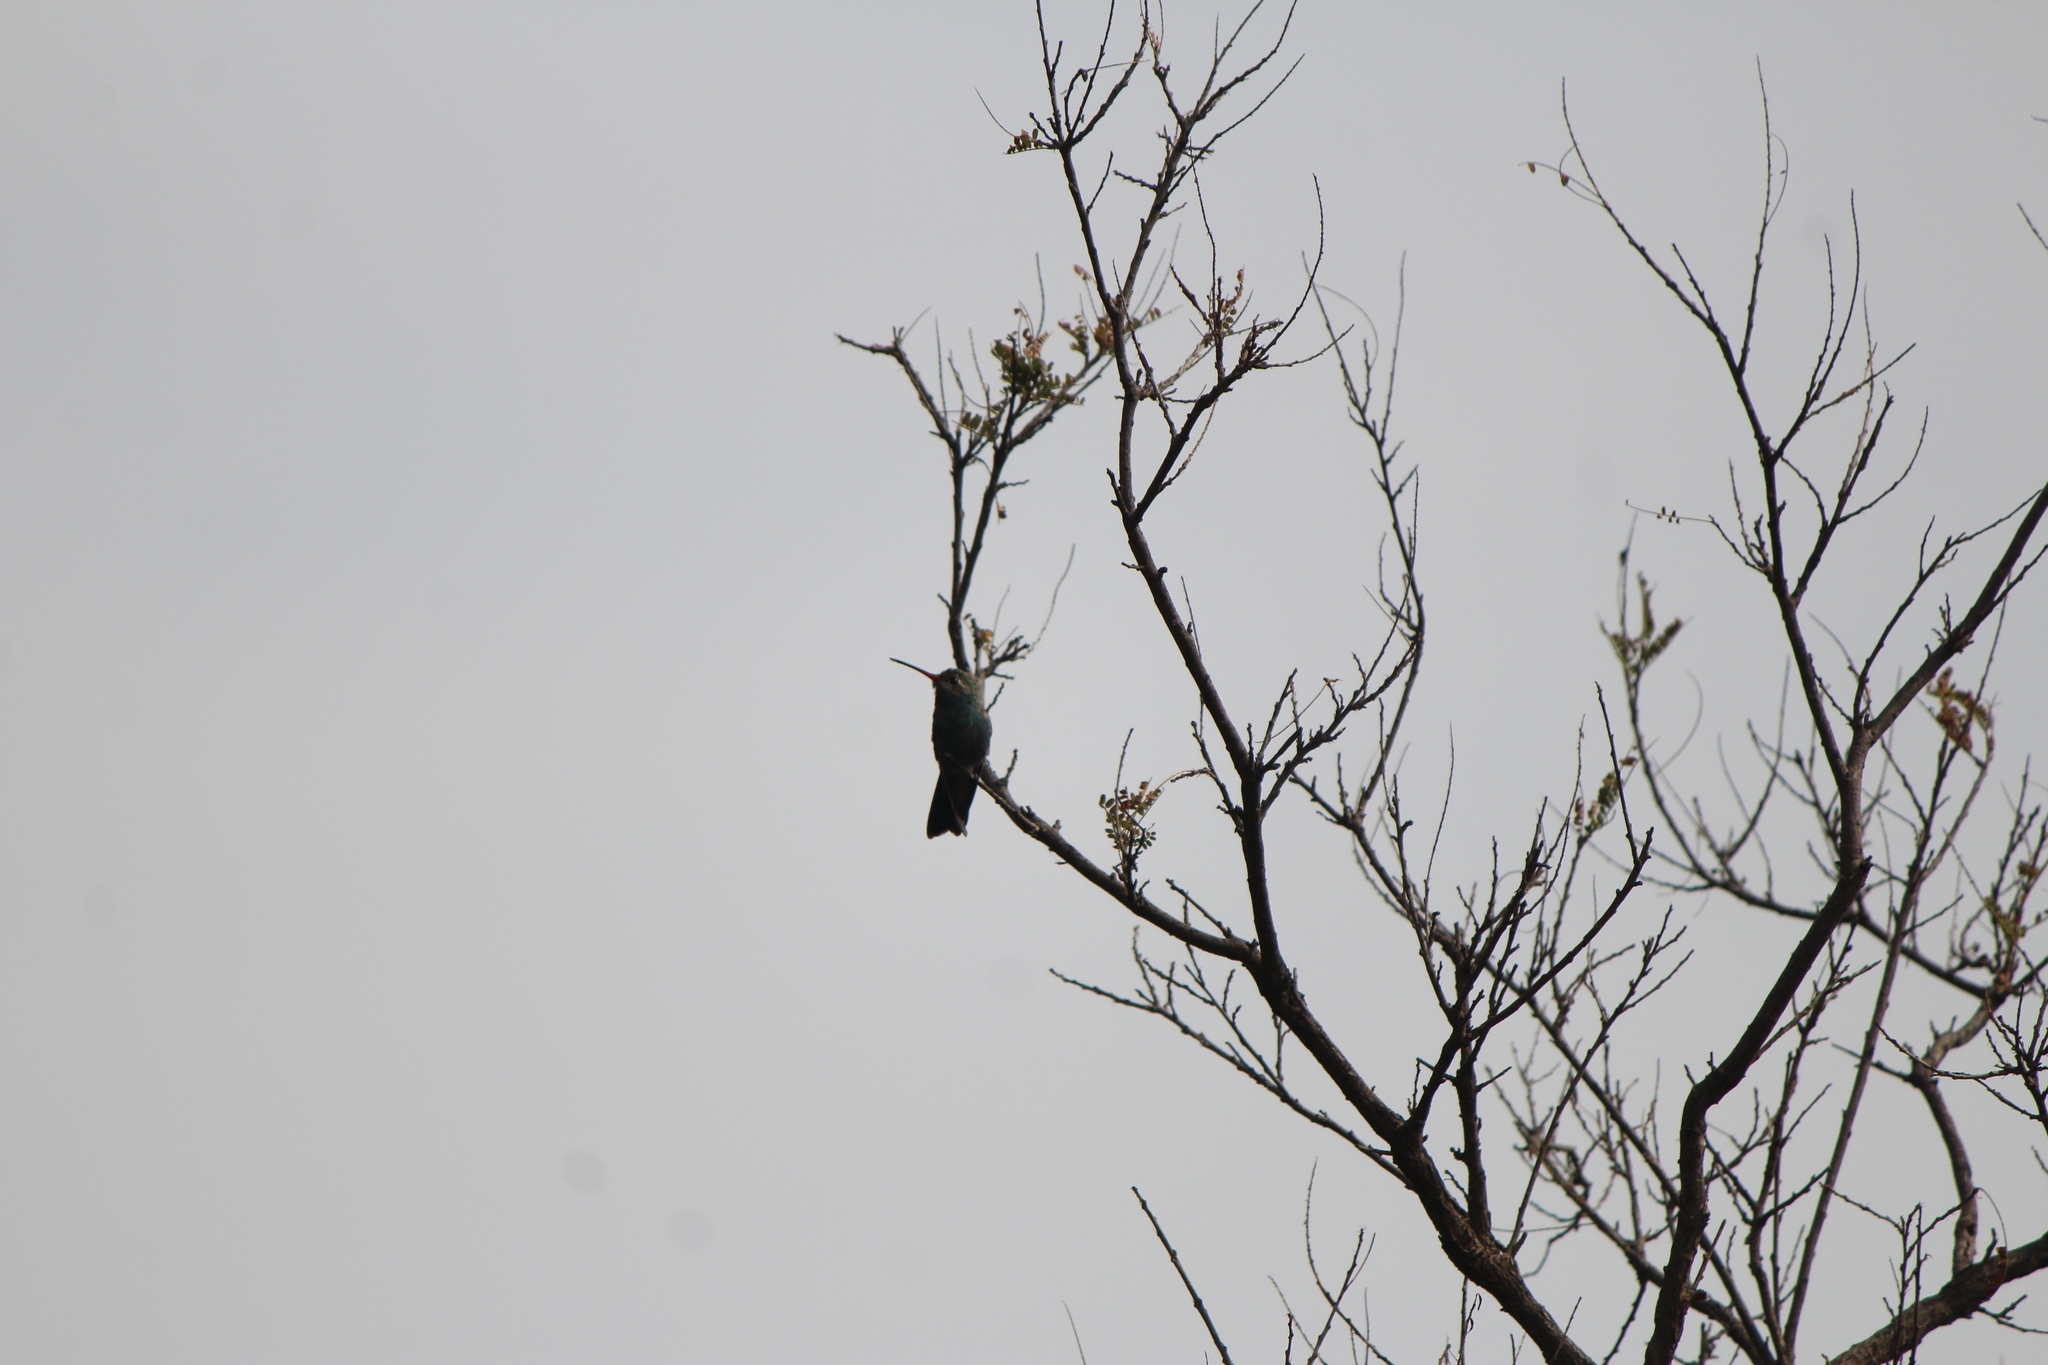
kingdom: Animalia
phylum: Chordata
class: Aves
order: Apodiformes
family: Trochilidae
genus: Cynanthus
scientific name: Cynanthus latirostris
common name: Broad-billed hummingbird
